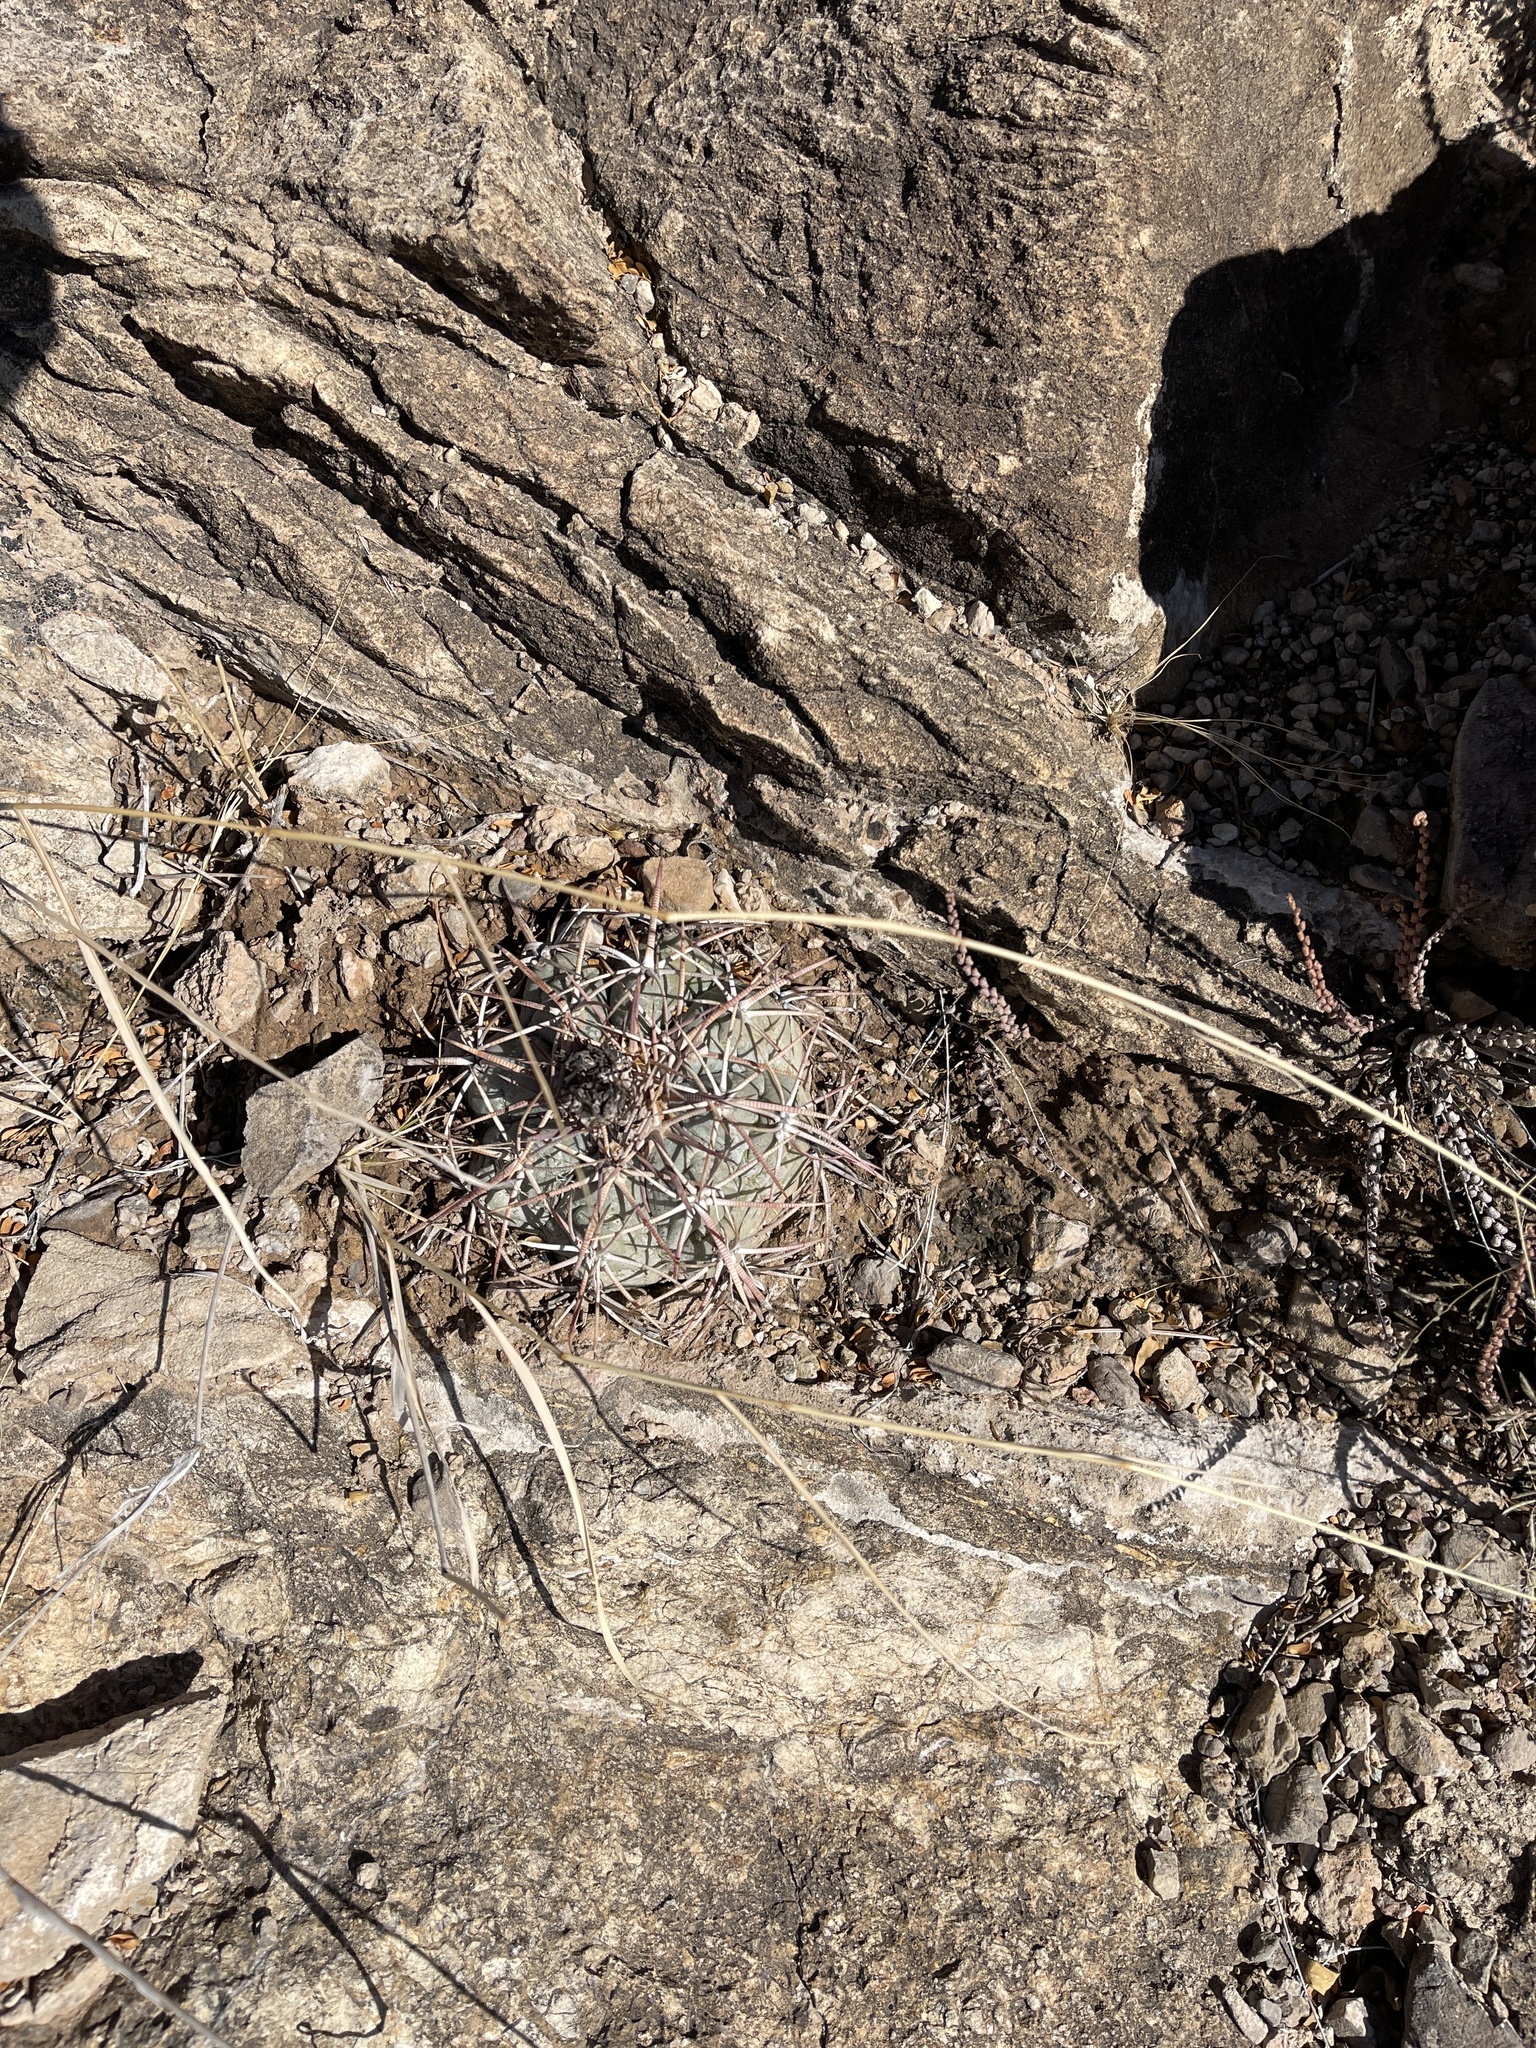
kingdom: Plantae
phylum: Tracheophyta
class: Magnoliopsida
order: Caryophyllales
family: Cactaceae
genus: Echinocactus
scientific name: Echinocactus horizonthalonius
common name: Devilshead
